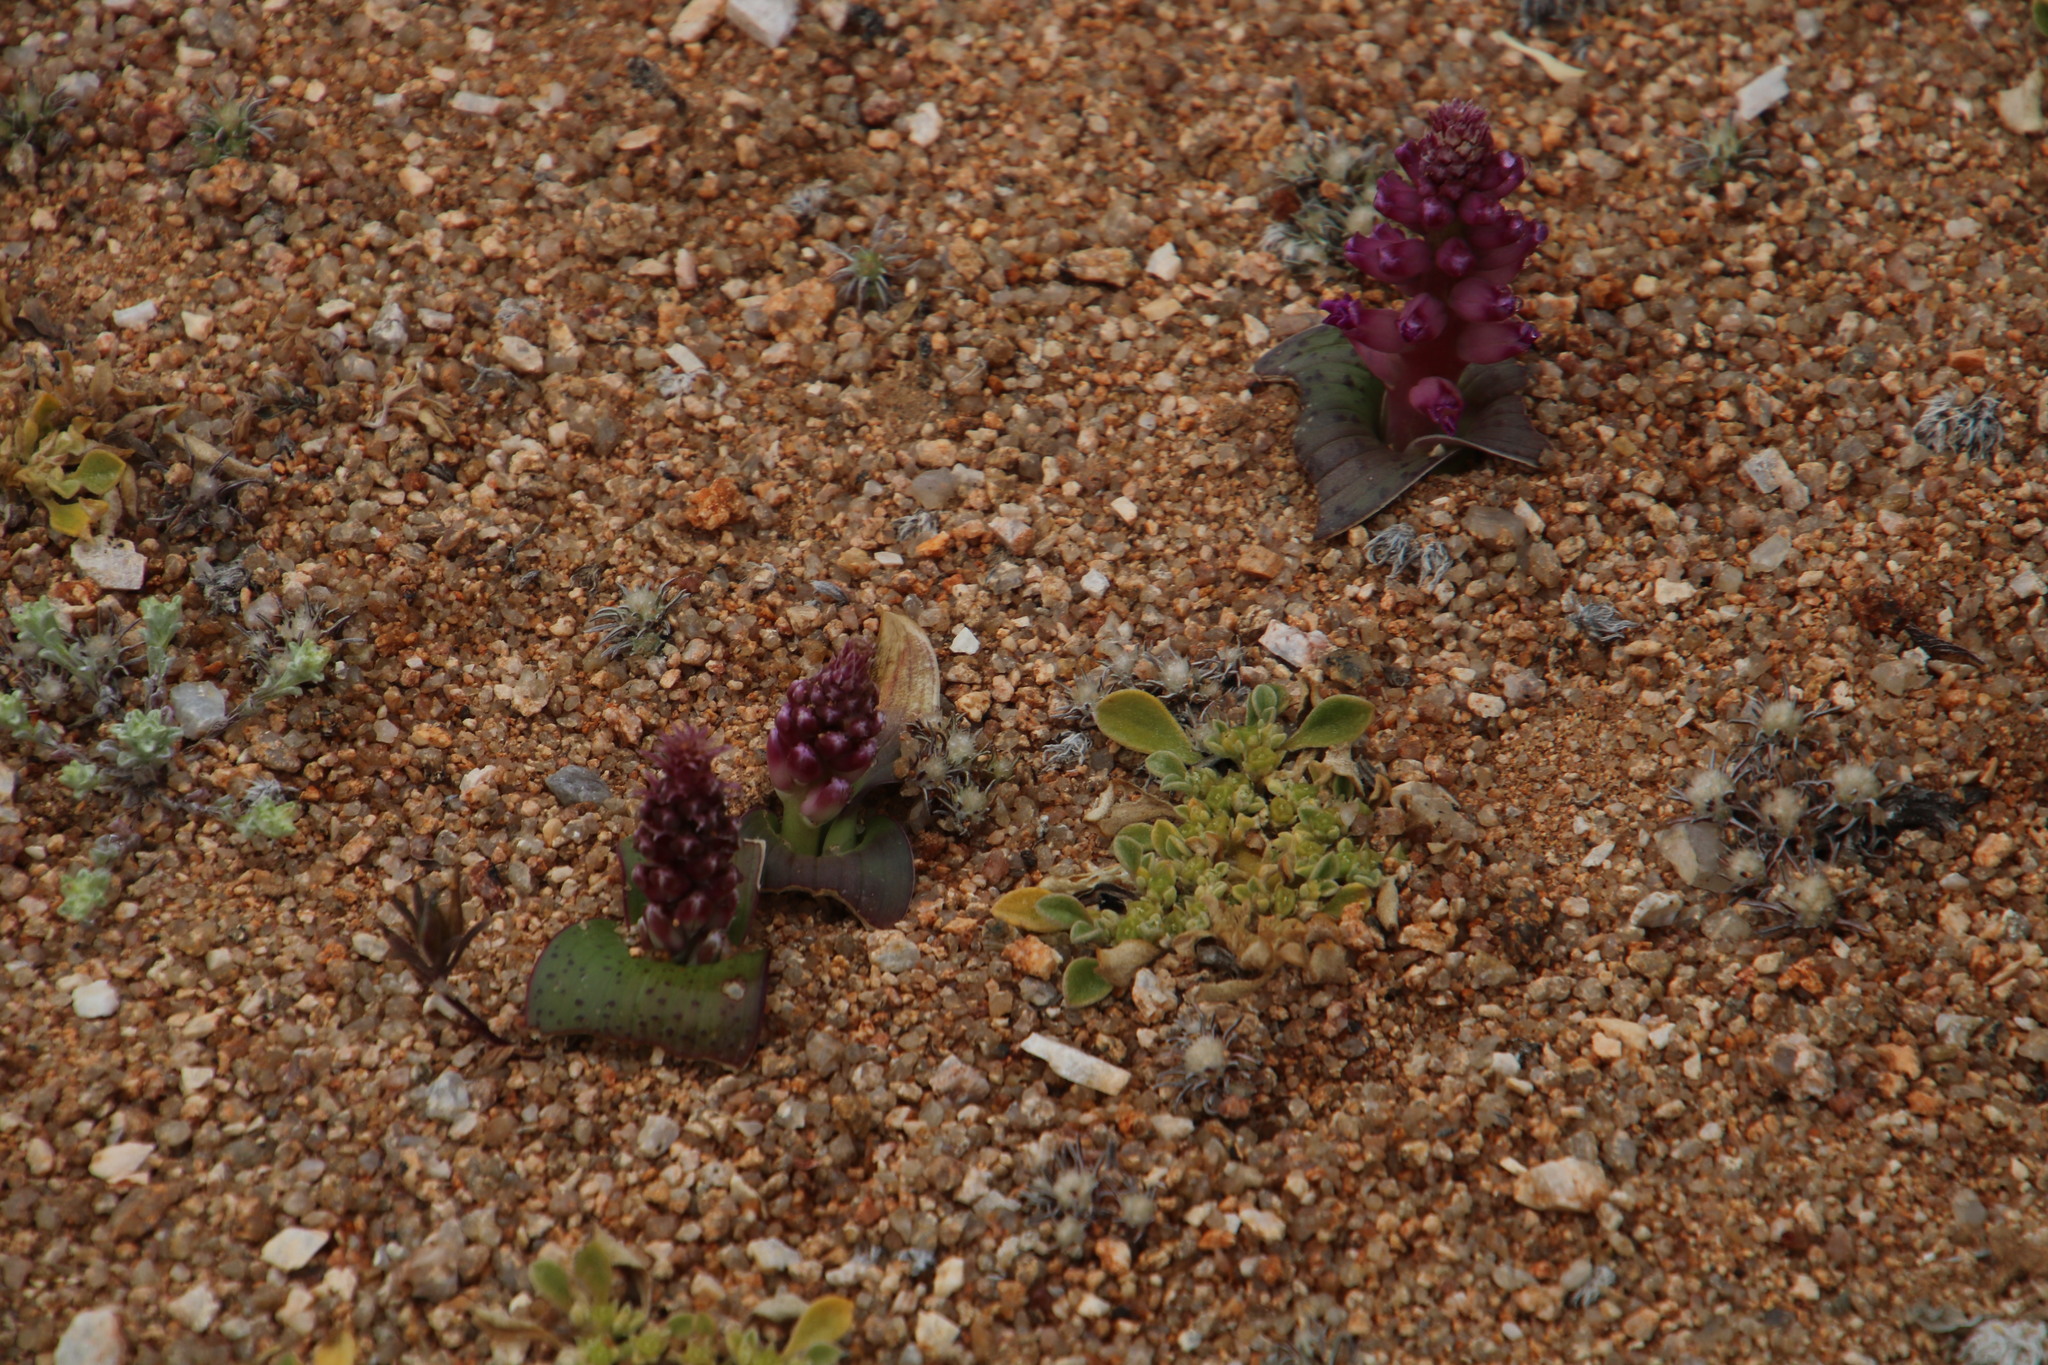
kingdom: Plantae
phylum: Tracheophyta
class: Liliopsida
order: Asparagales
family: Asparagaceae
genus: Lachenalia
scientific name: Lachenalia carnosa
